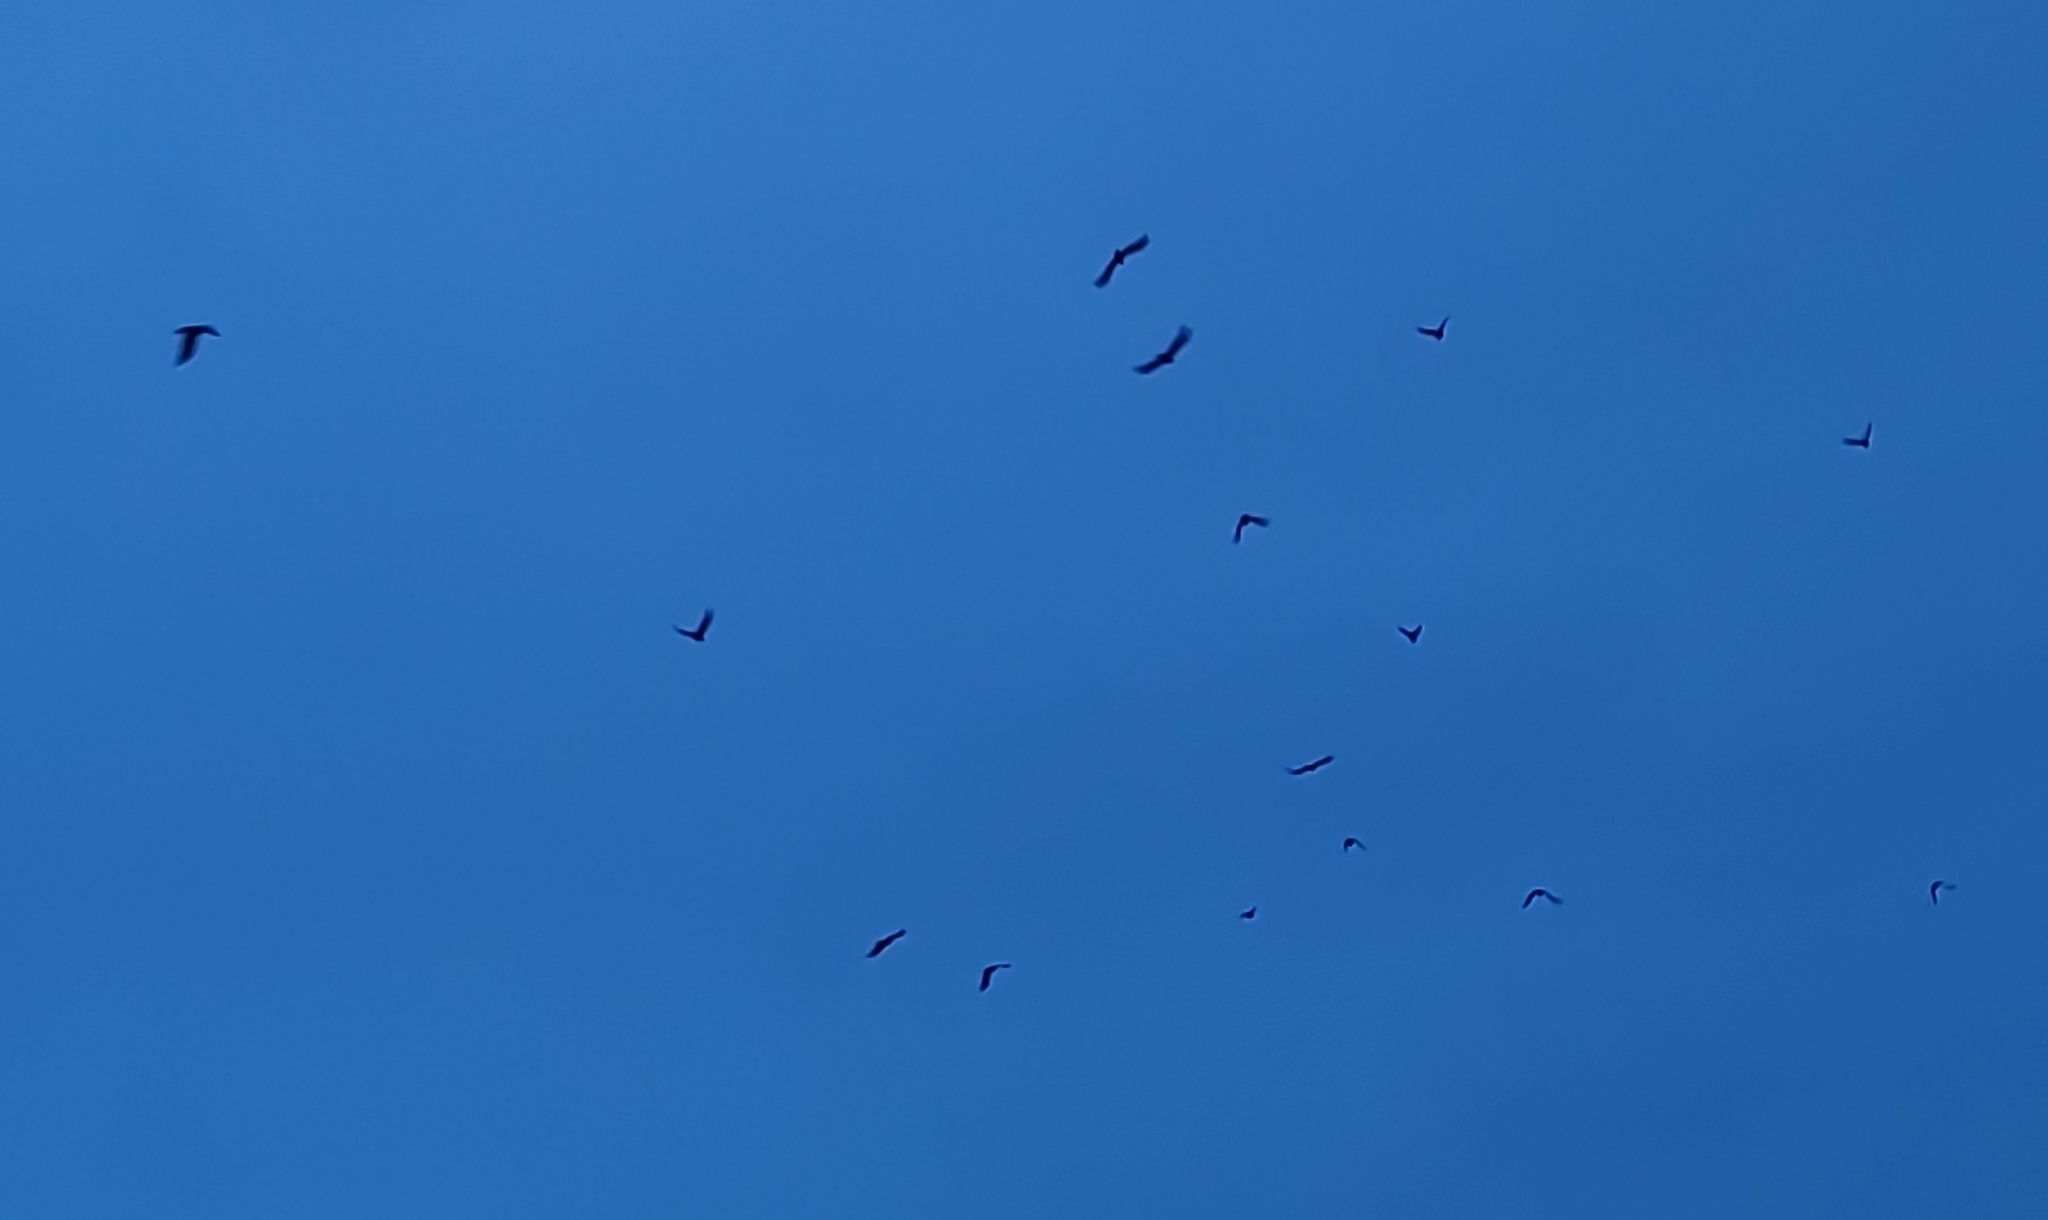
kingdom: Animalia
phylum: Chordata
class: Aves
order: Passeriformes
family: Corvidae
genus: Corvus
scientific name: Corvus brachyrhynchos
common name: American crow
